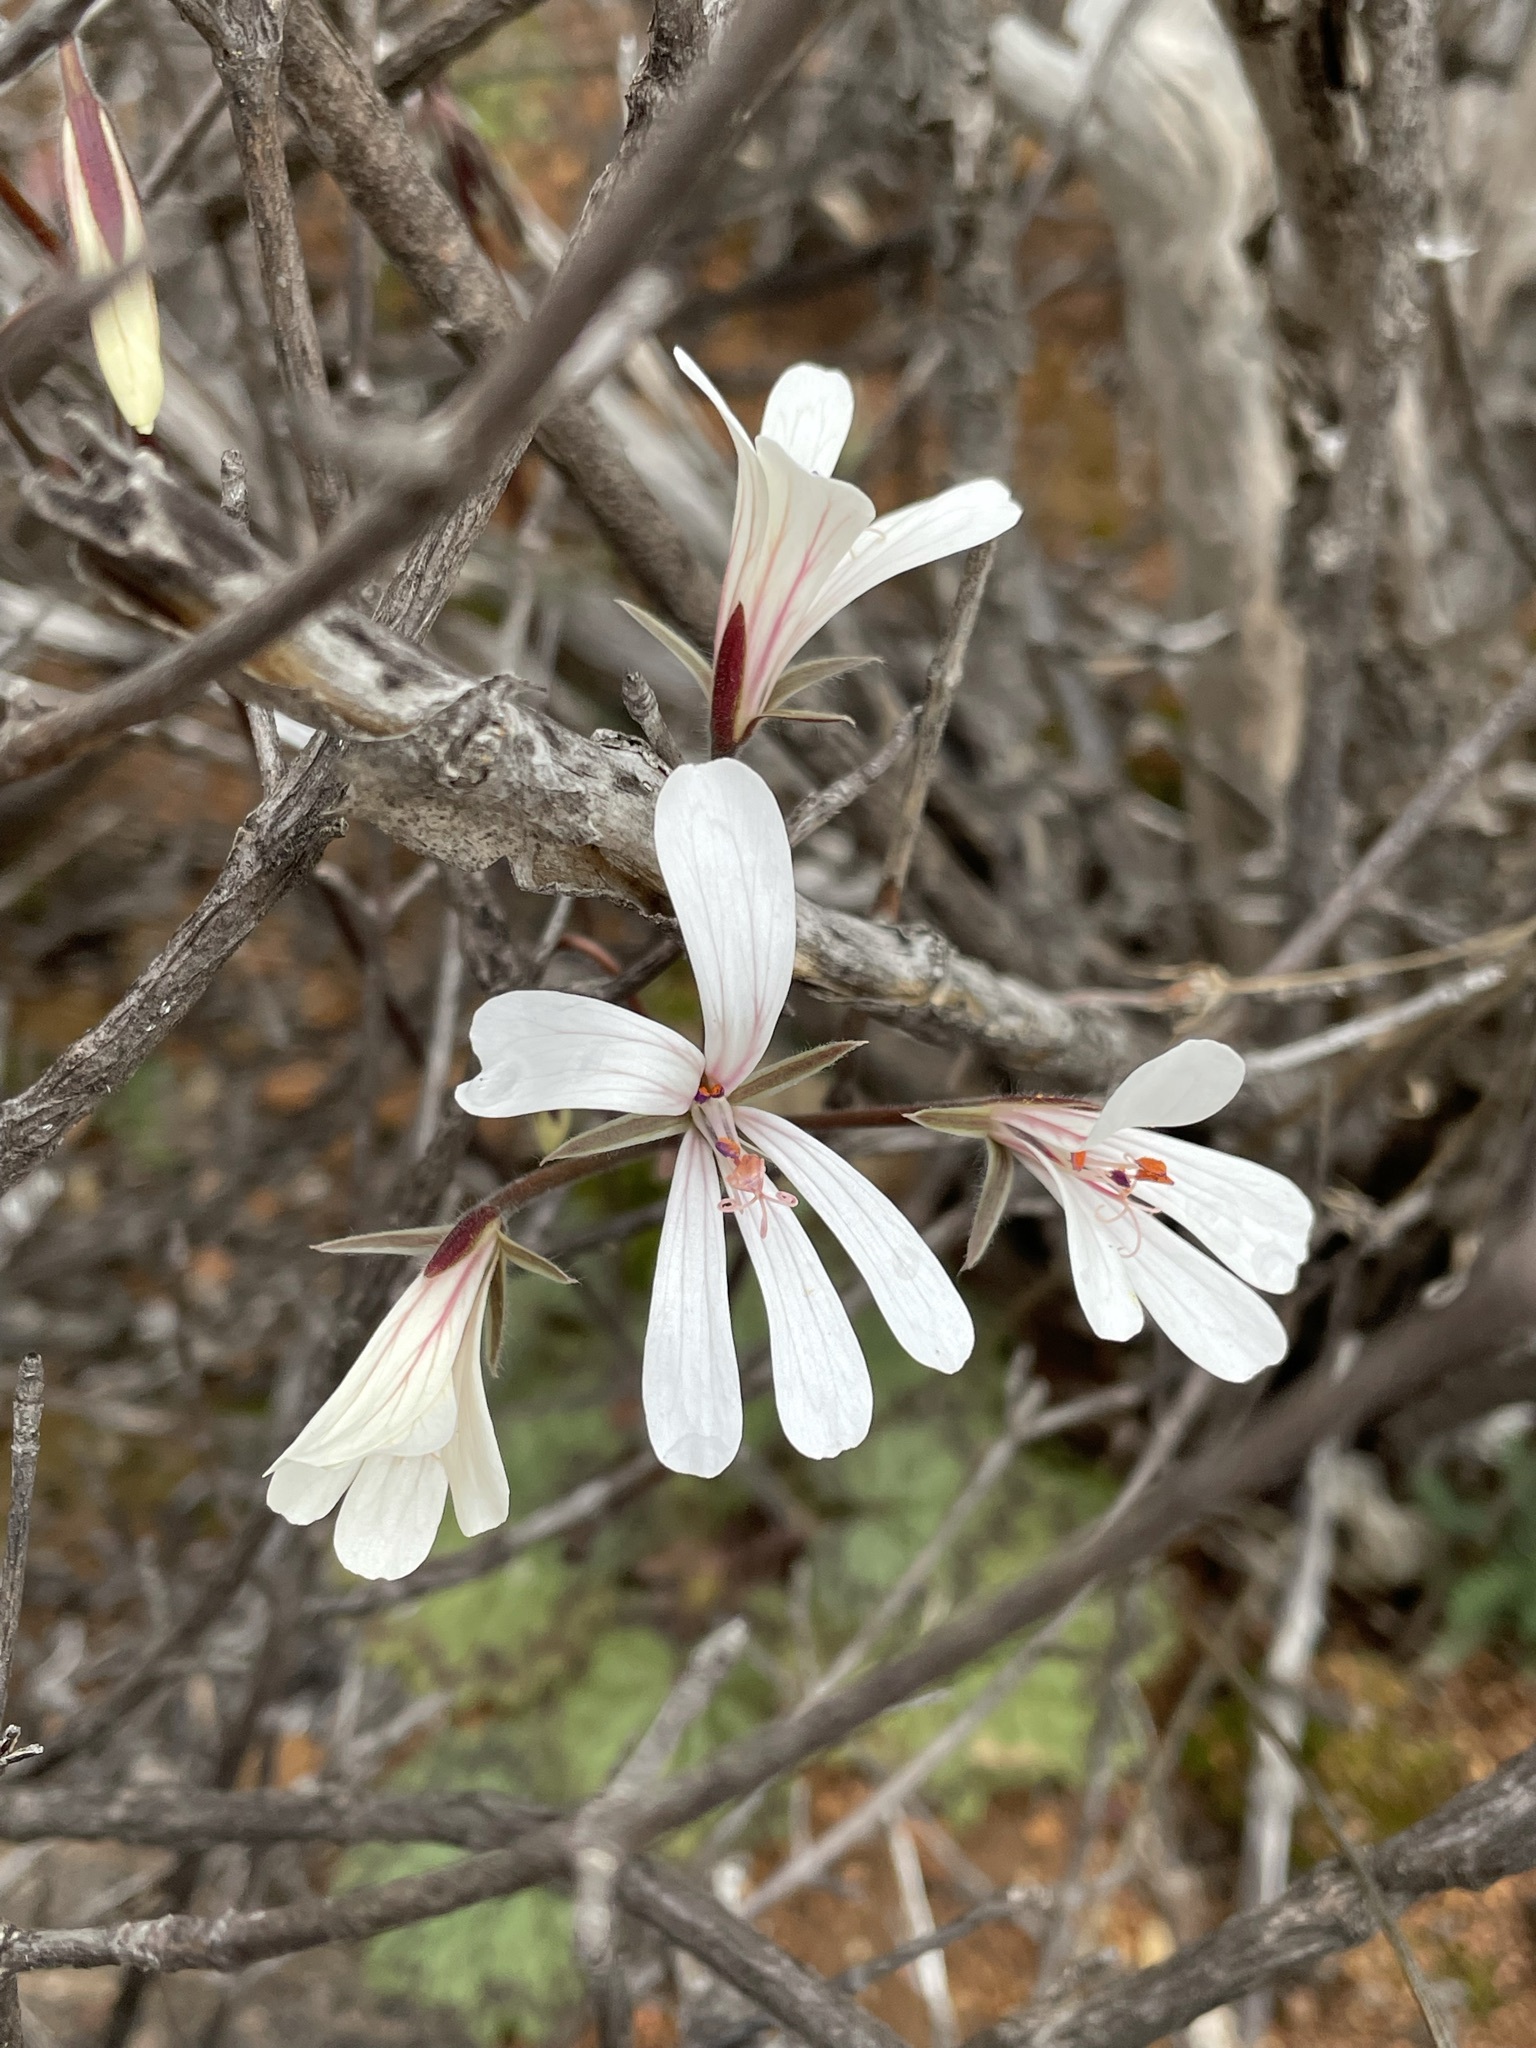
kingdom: Plantae
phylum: Tracheophyta
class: Magnoliopsida
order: Geraniales
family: Geraniaceae
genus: Pelargonium
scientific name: Pelargonium barklyi
